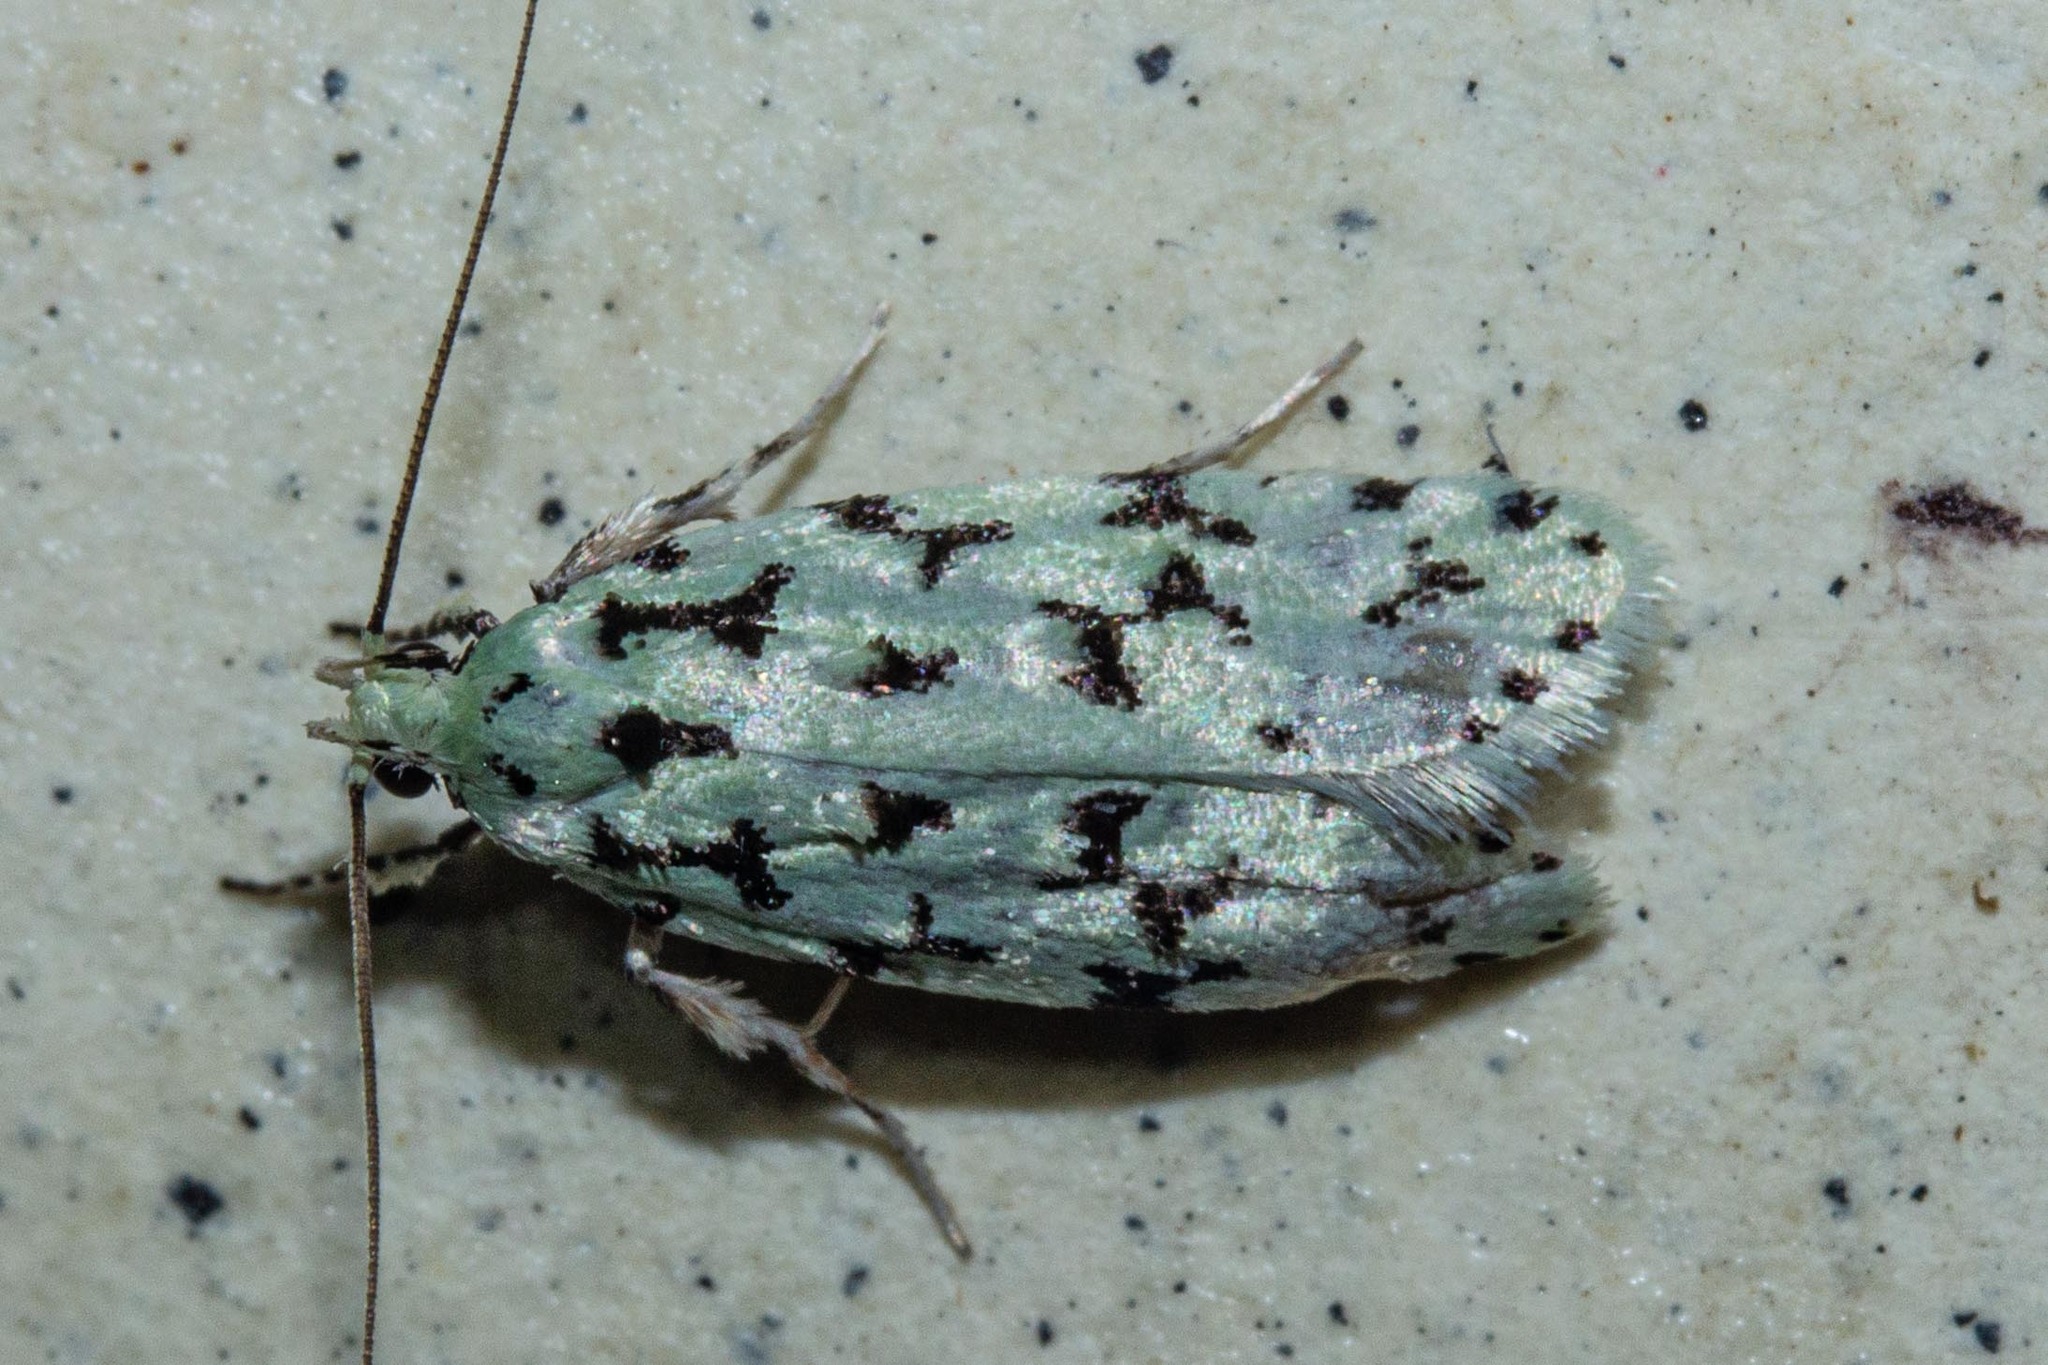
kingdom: Animalia
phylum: Arthropoda
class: Insecta
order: Lepidoptera
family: Oecophoridae
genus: Izatha
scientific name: Izatha huttoni
